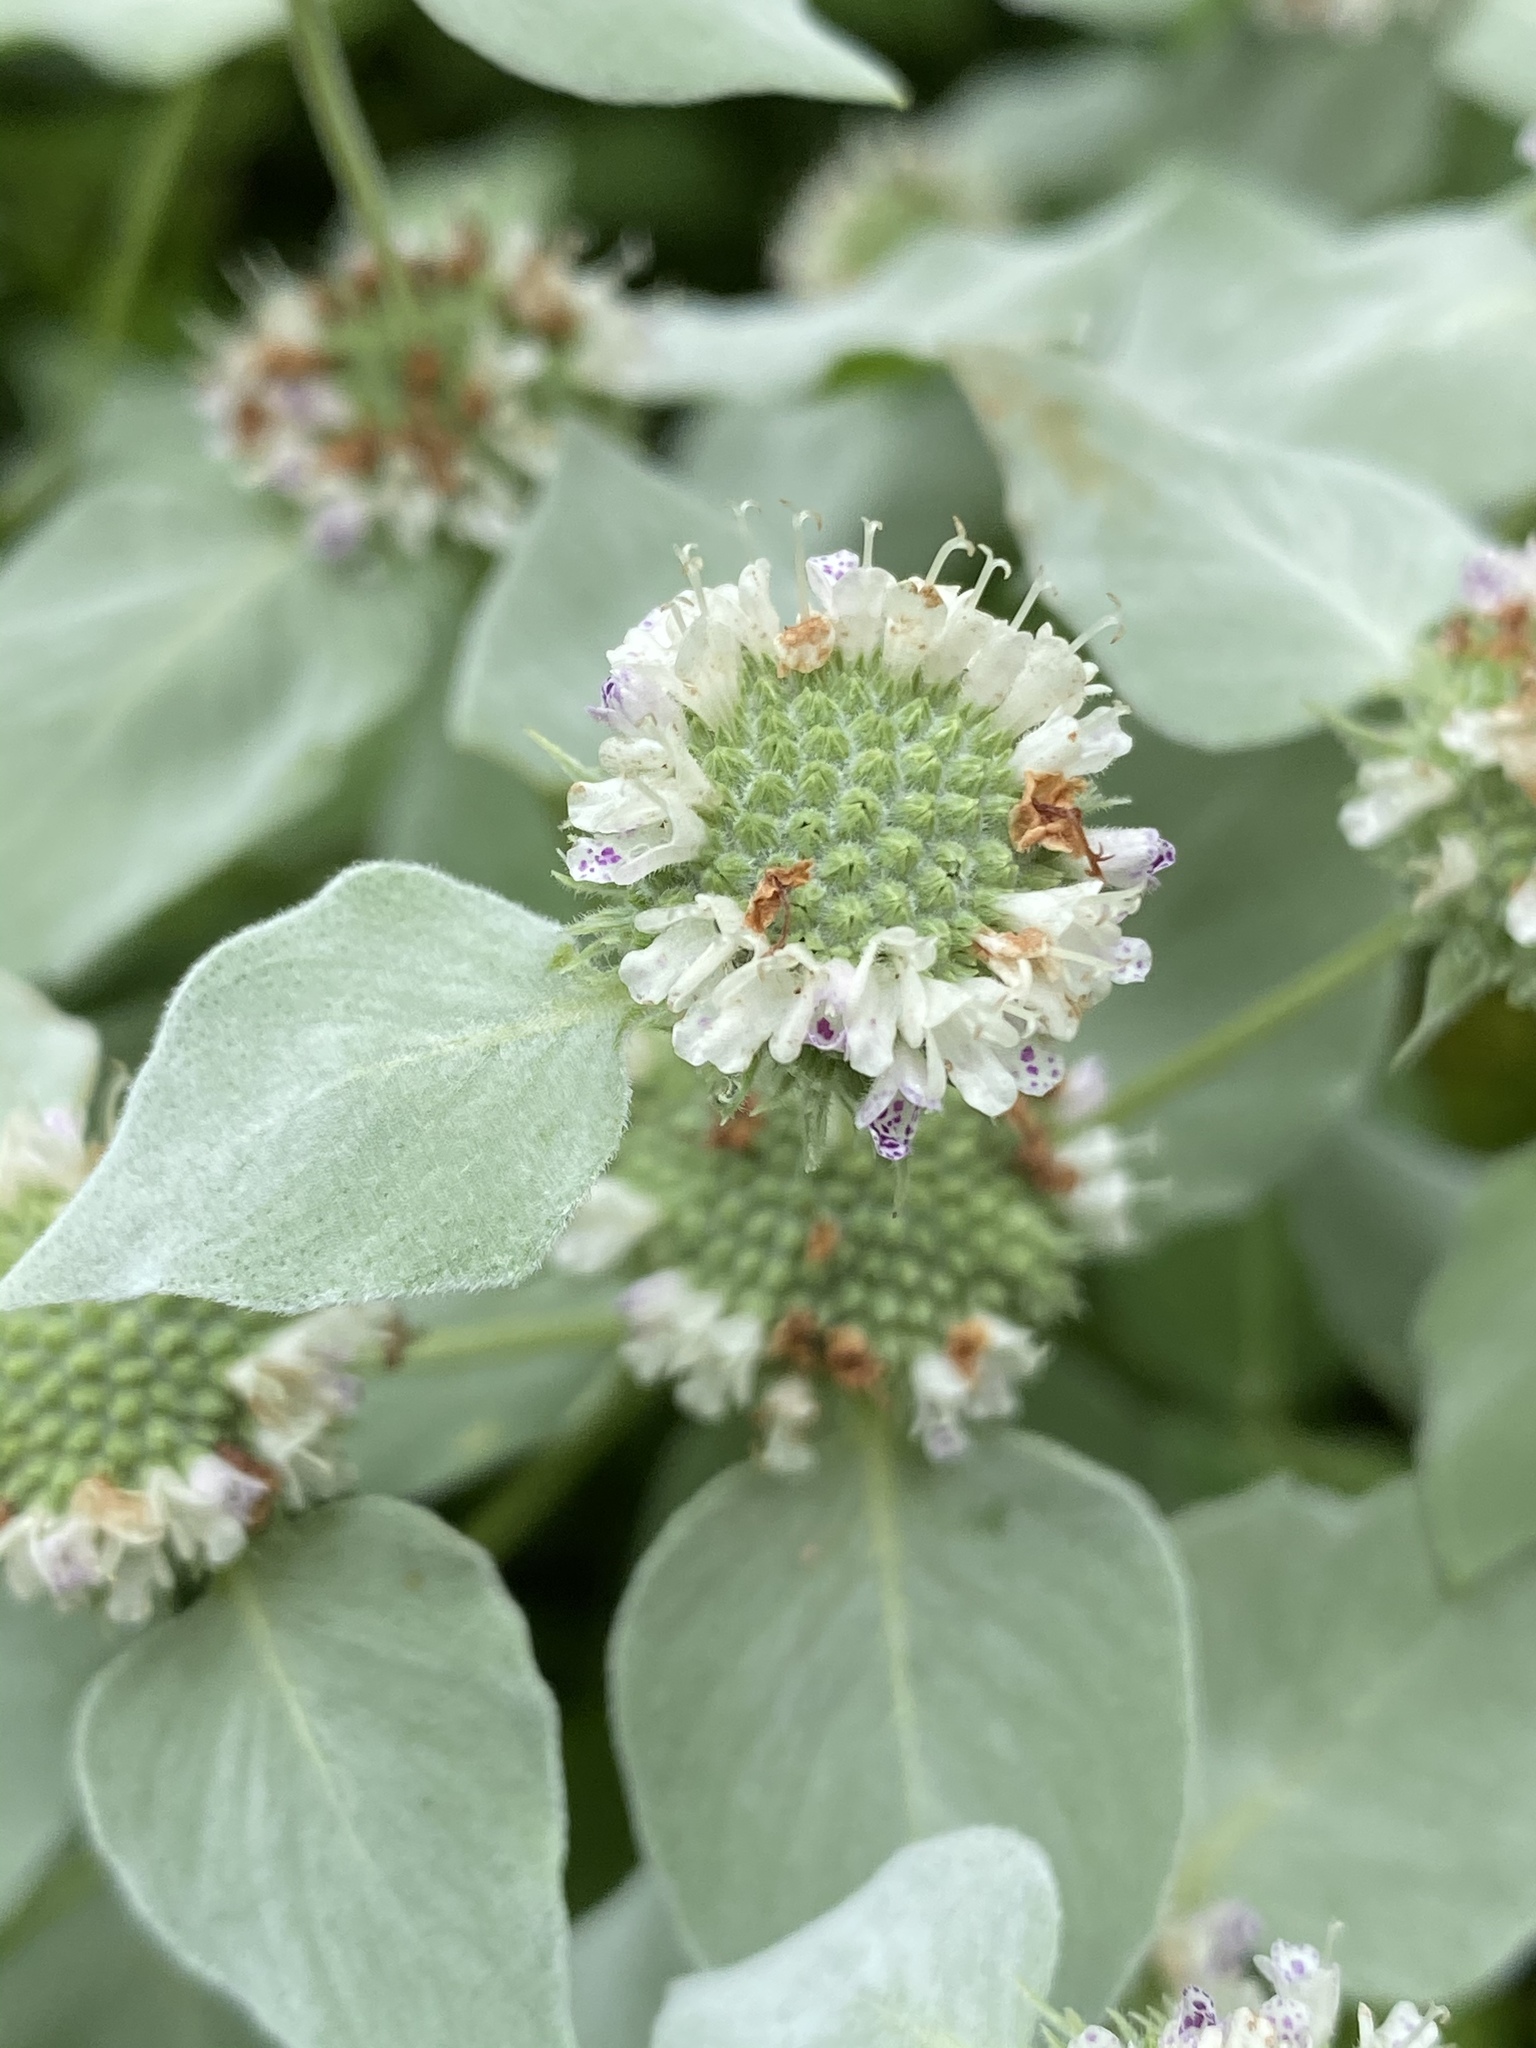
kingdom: Plantae
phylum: Tracheophyta
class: Magnoliopsida
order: Lamiales
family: Lamiaceae
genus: Pycnanthemum
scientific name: Pycnanthemum muticum
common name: Blunt mountain-mint
